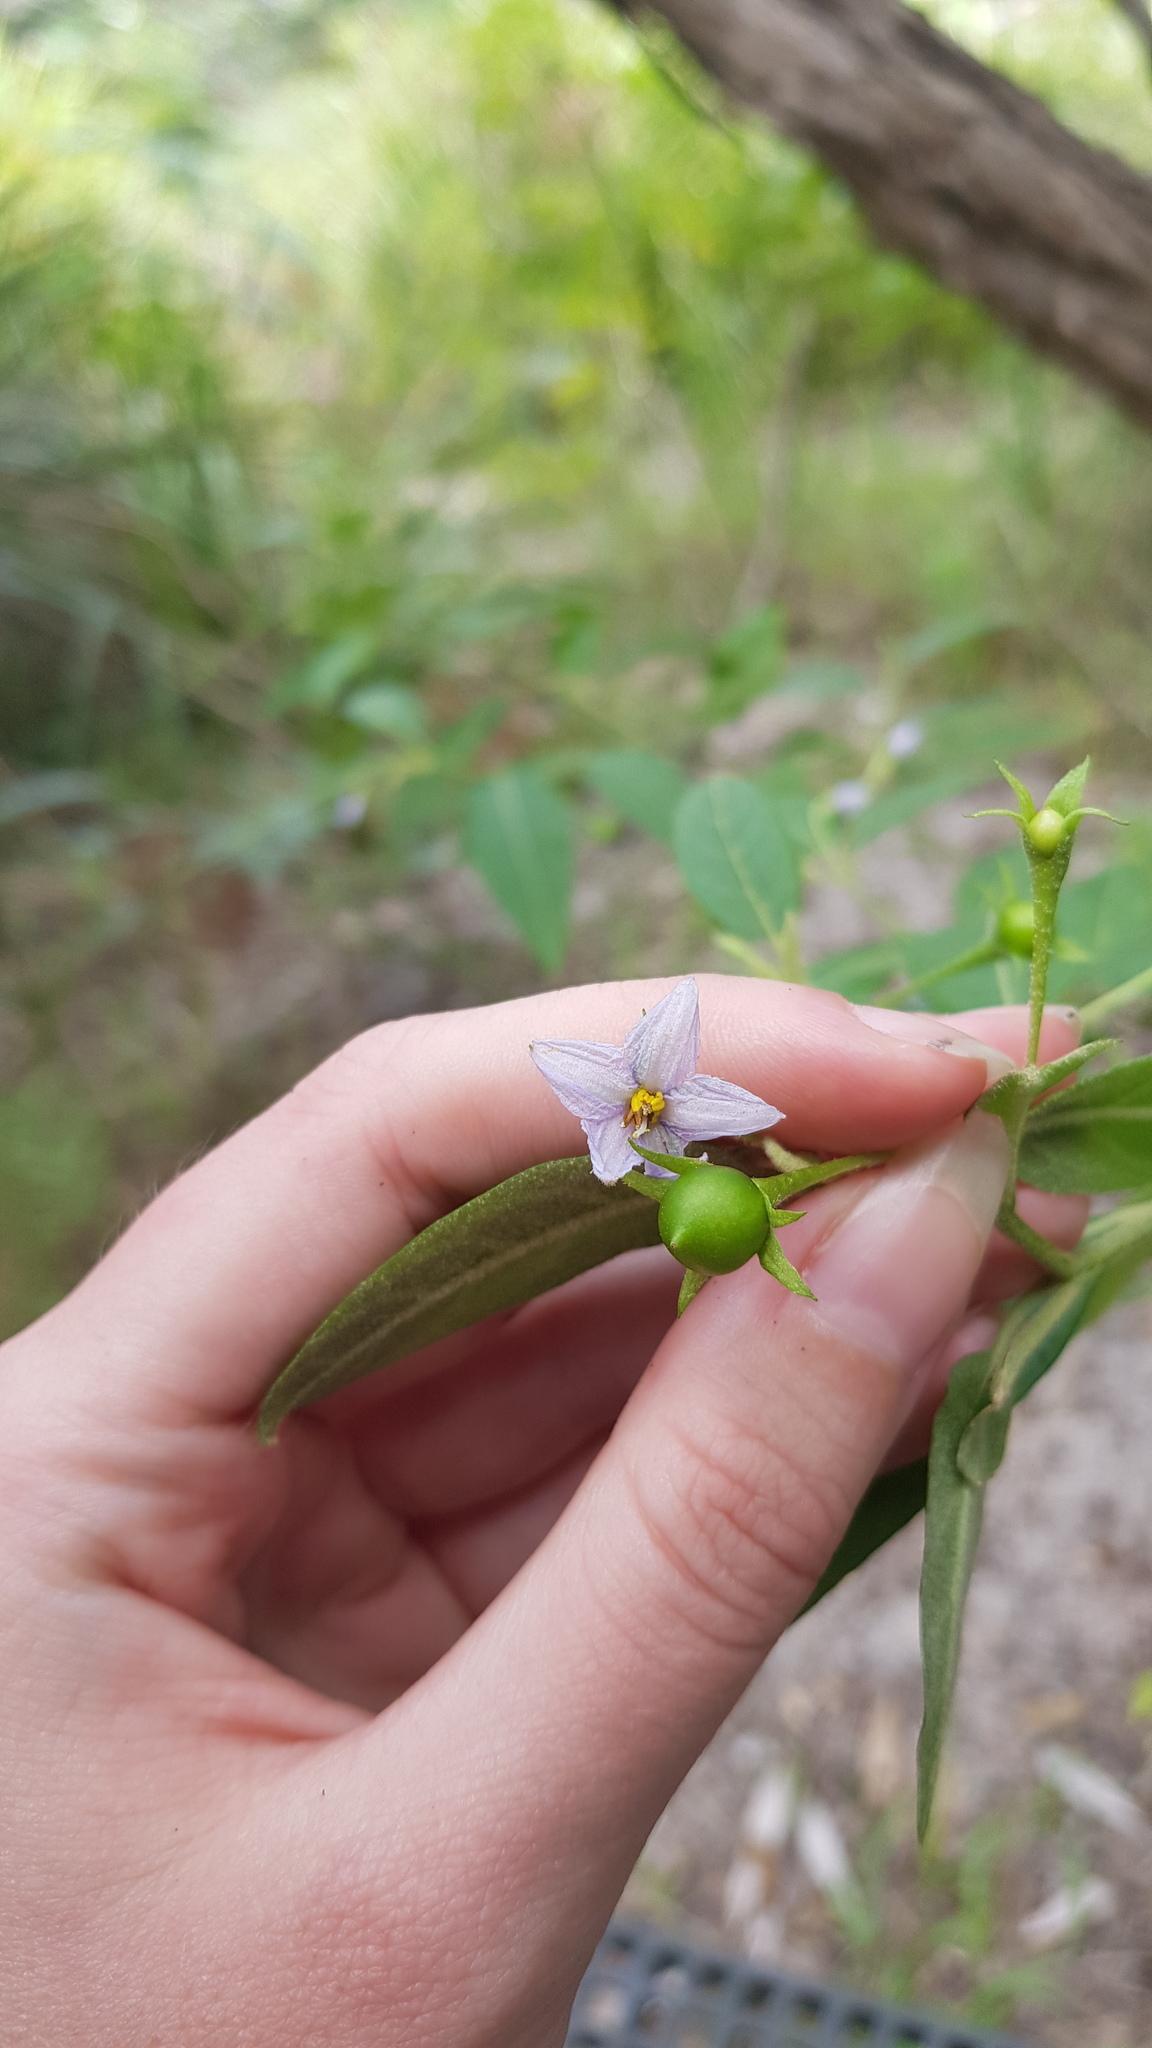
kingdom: Plantae
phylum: Tracheophyta
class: Magnoliopsida
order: Solanales
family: Solanaceae
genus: Solanum
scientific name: Solanum stelligerum
